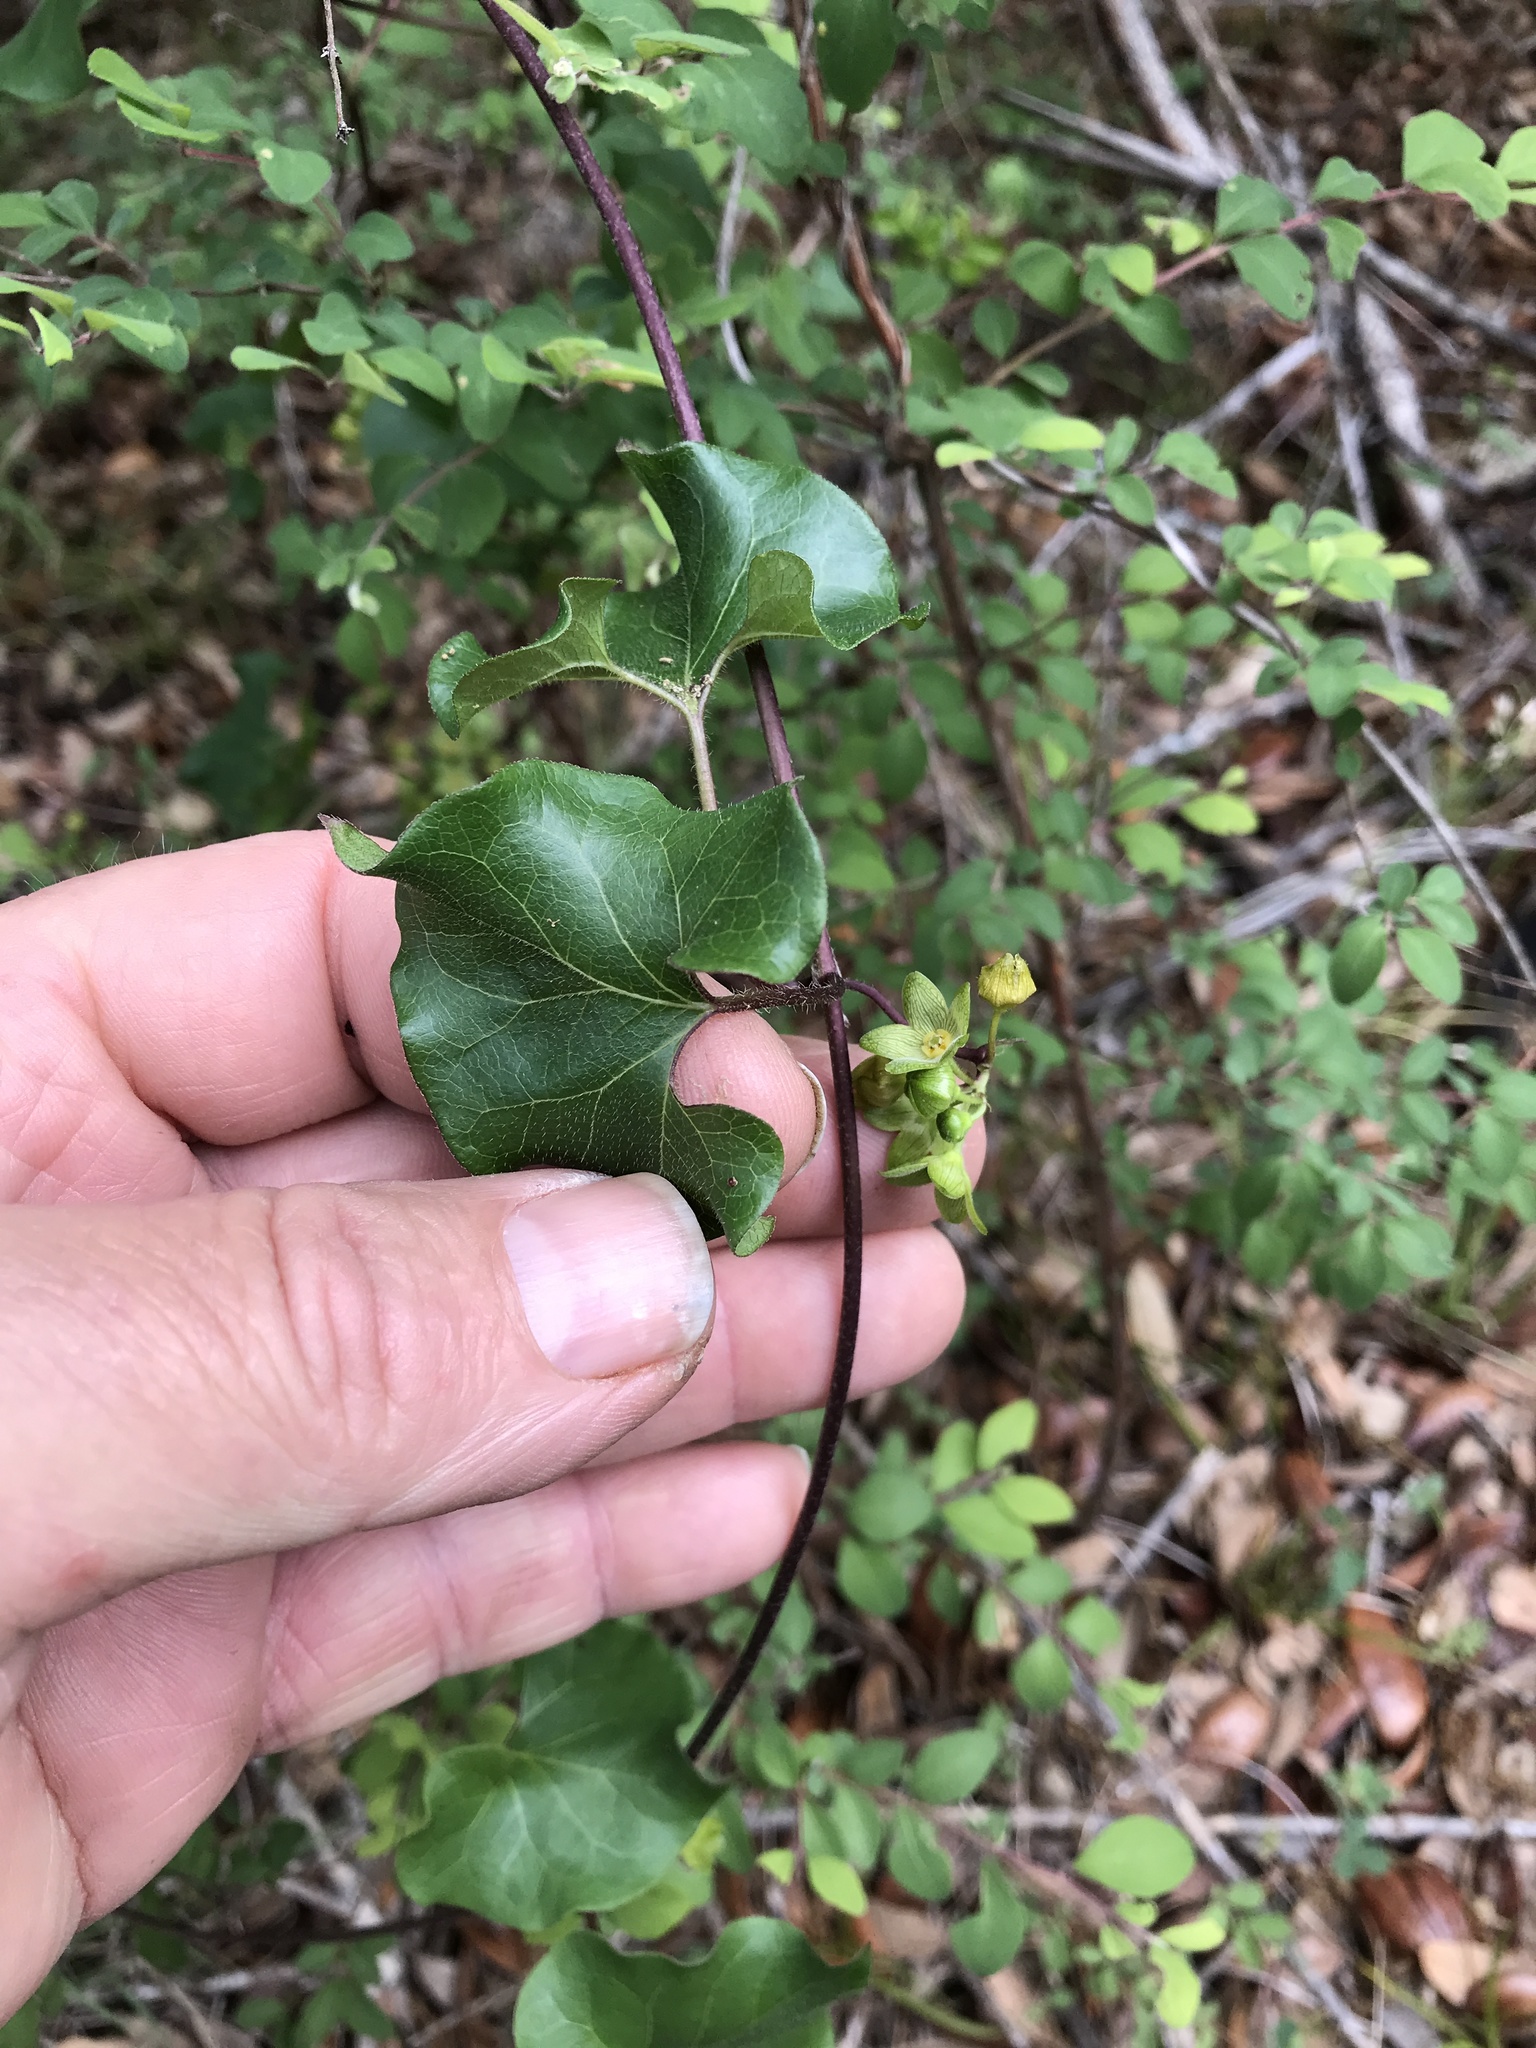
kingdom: Plantae
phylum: Tracheophyta
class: Magnoliopsida
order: Gentianales
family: Apocynaceae
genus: Matelea
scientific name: Matelea edwardsensis
